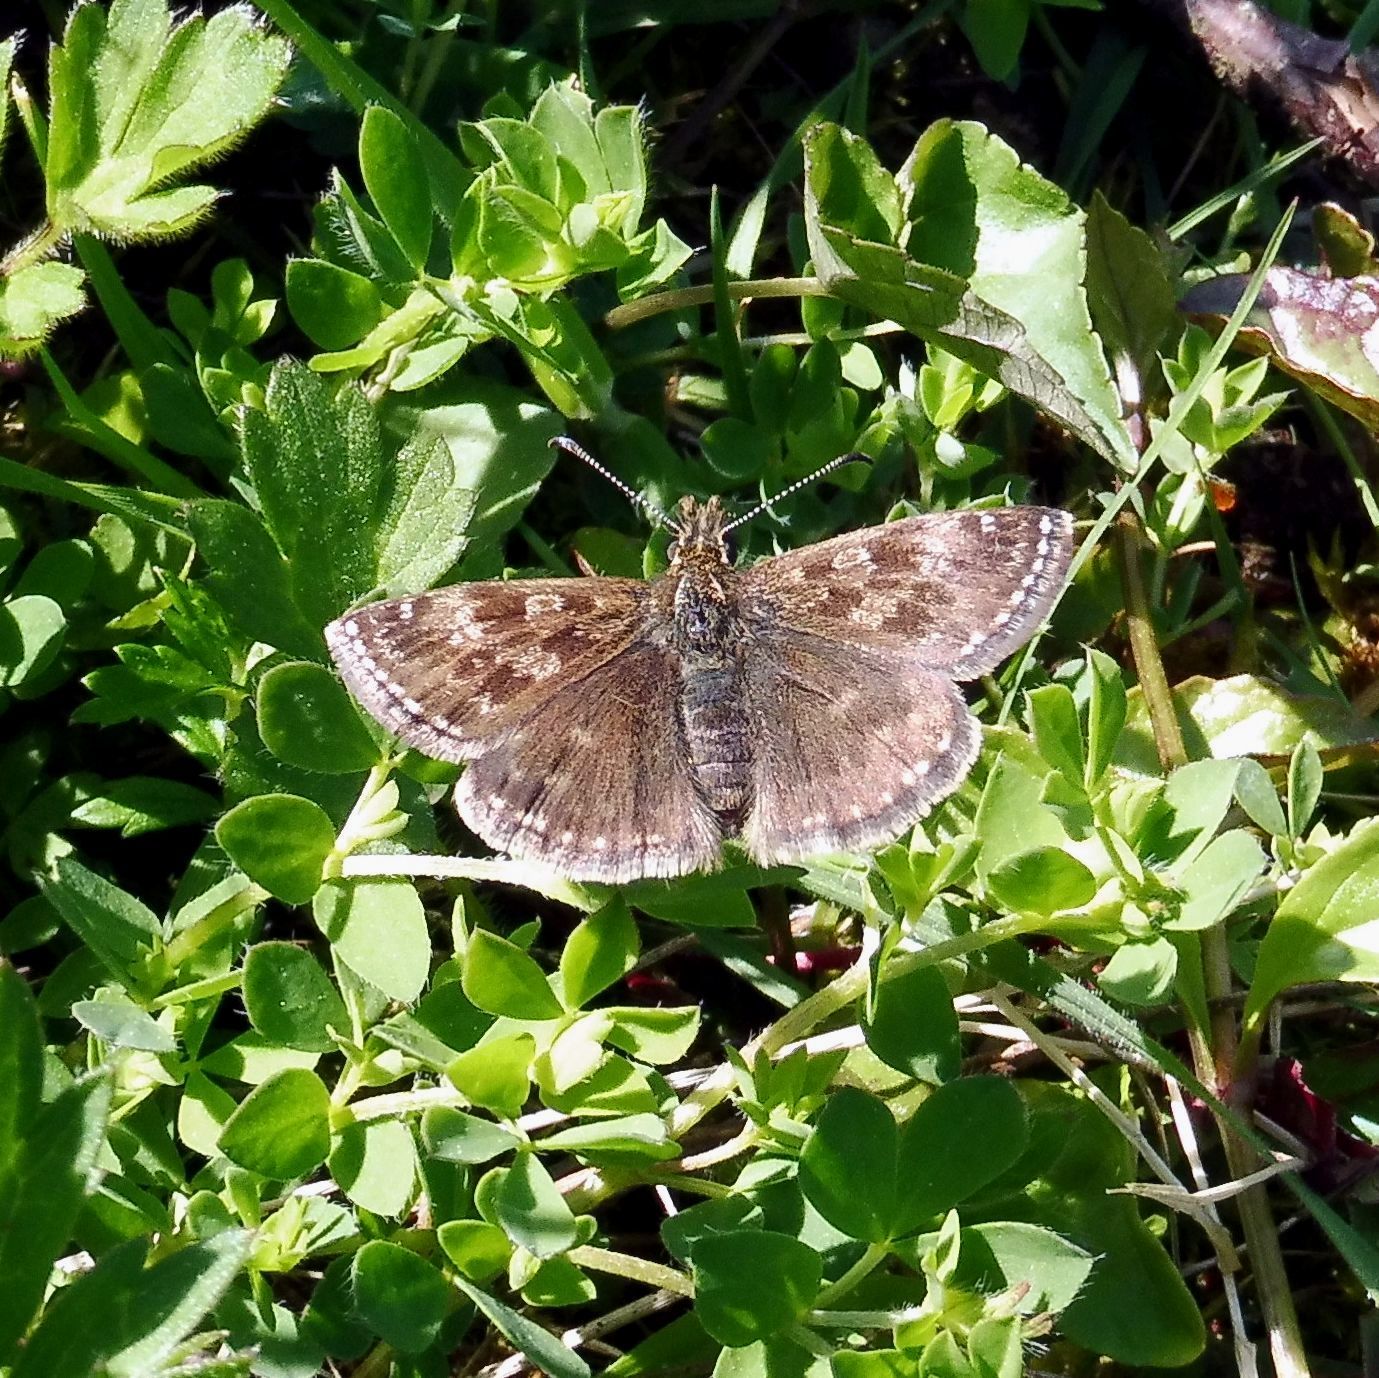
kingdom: Animalia
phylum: Arthropoda
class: Insecta
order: Lepidoptera
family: Hesperiidae
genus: Erynnis
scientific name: Erynnis tages
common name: Dingy skipper
